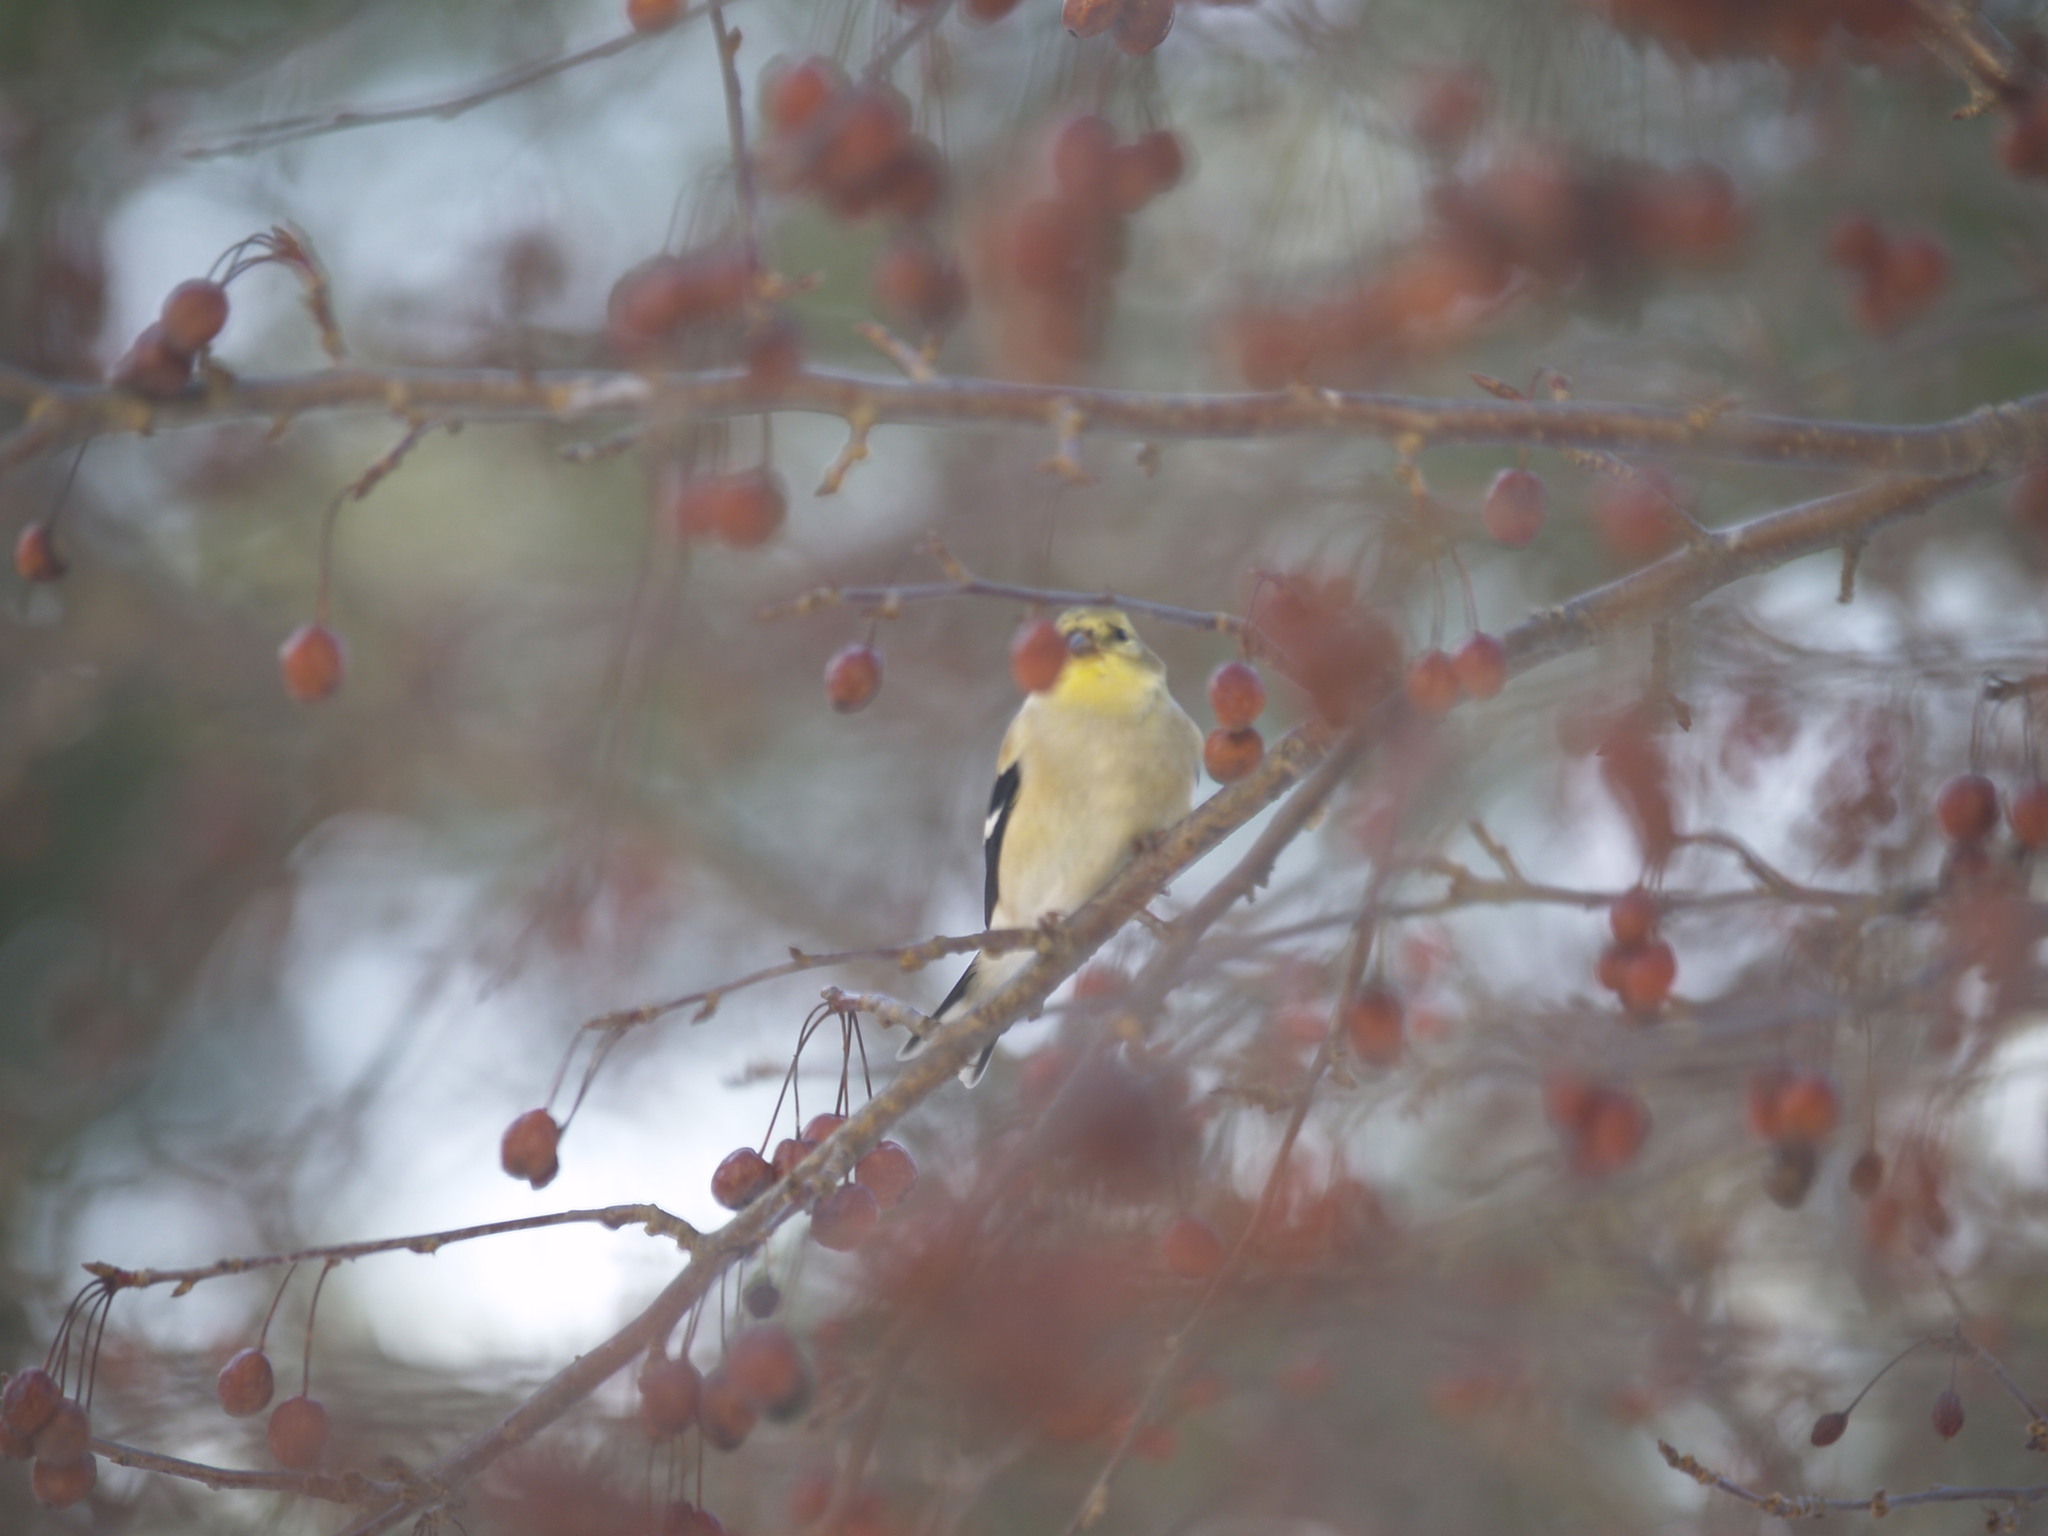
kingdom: Animalia
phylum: Chordata
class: Aves
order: Passeriformes
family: Fringillidae
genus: Spinus
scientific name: Spinus tristis
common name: American goldfinch
